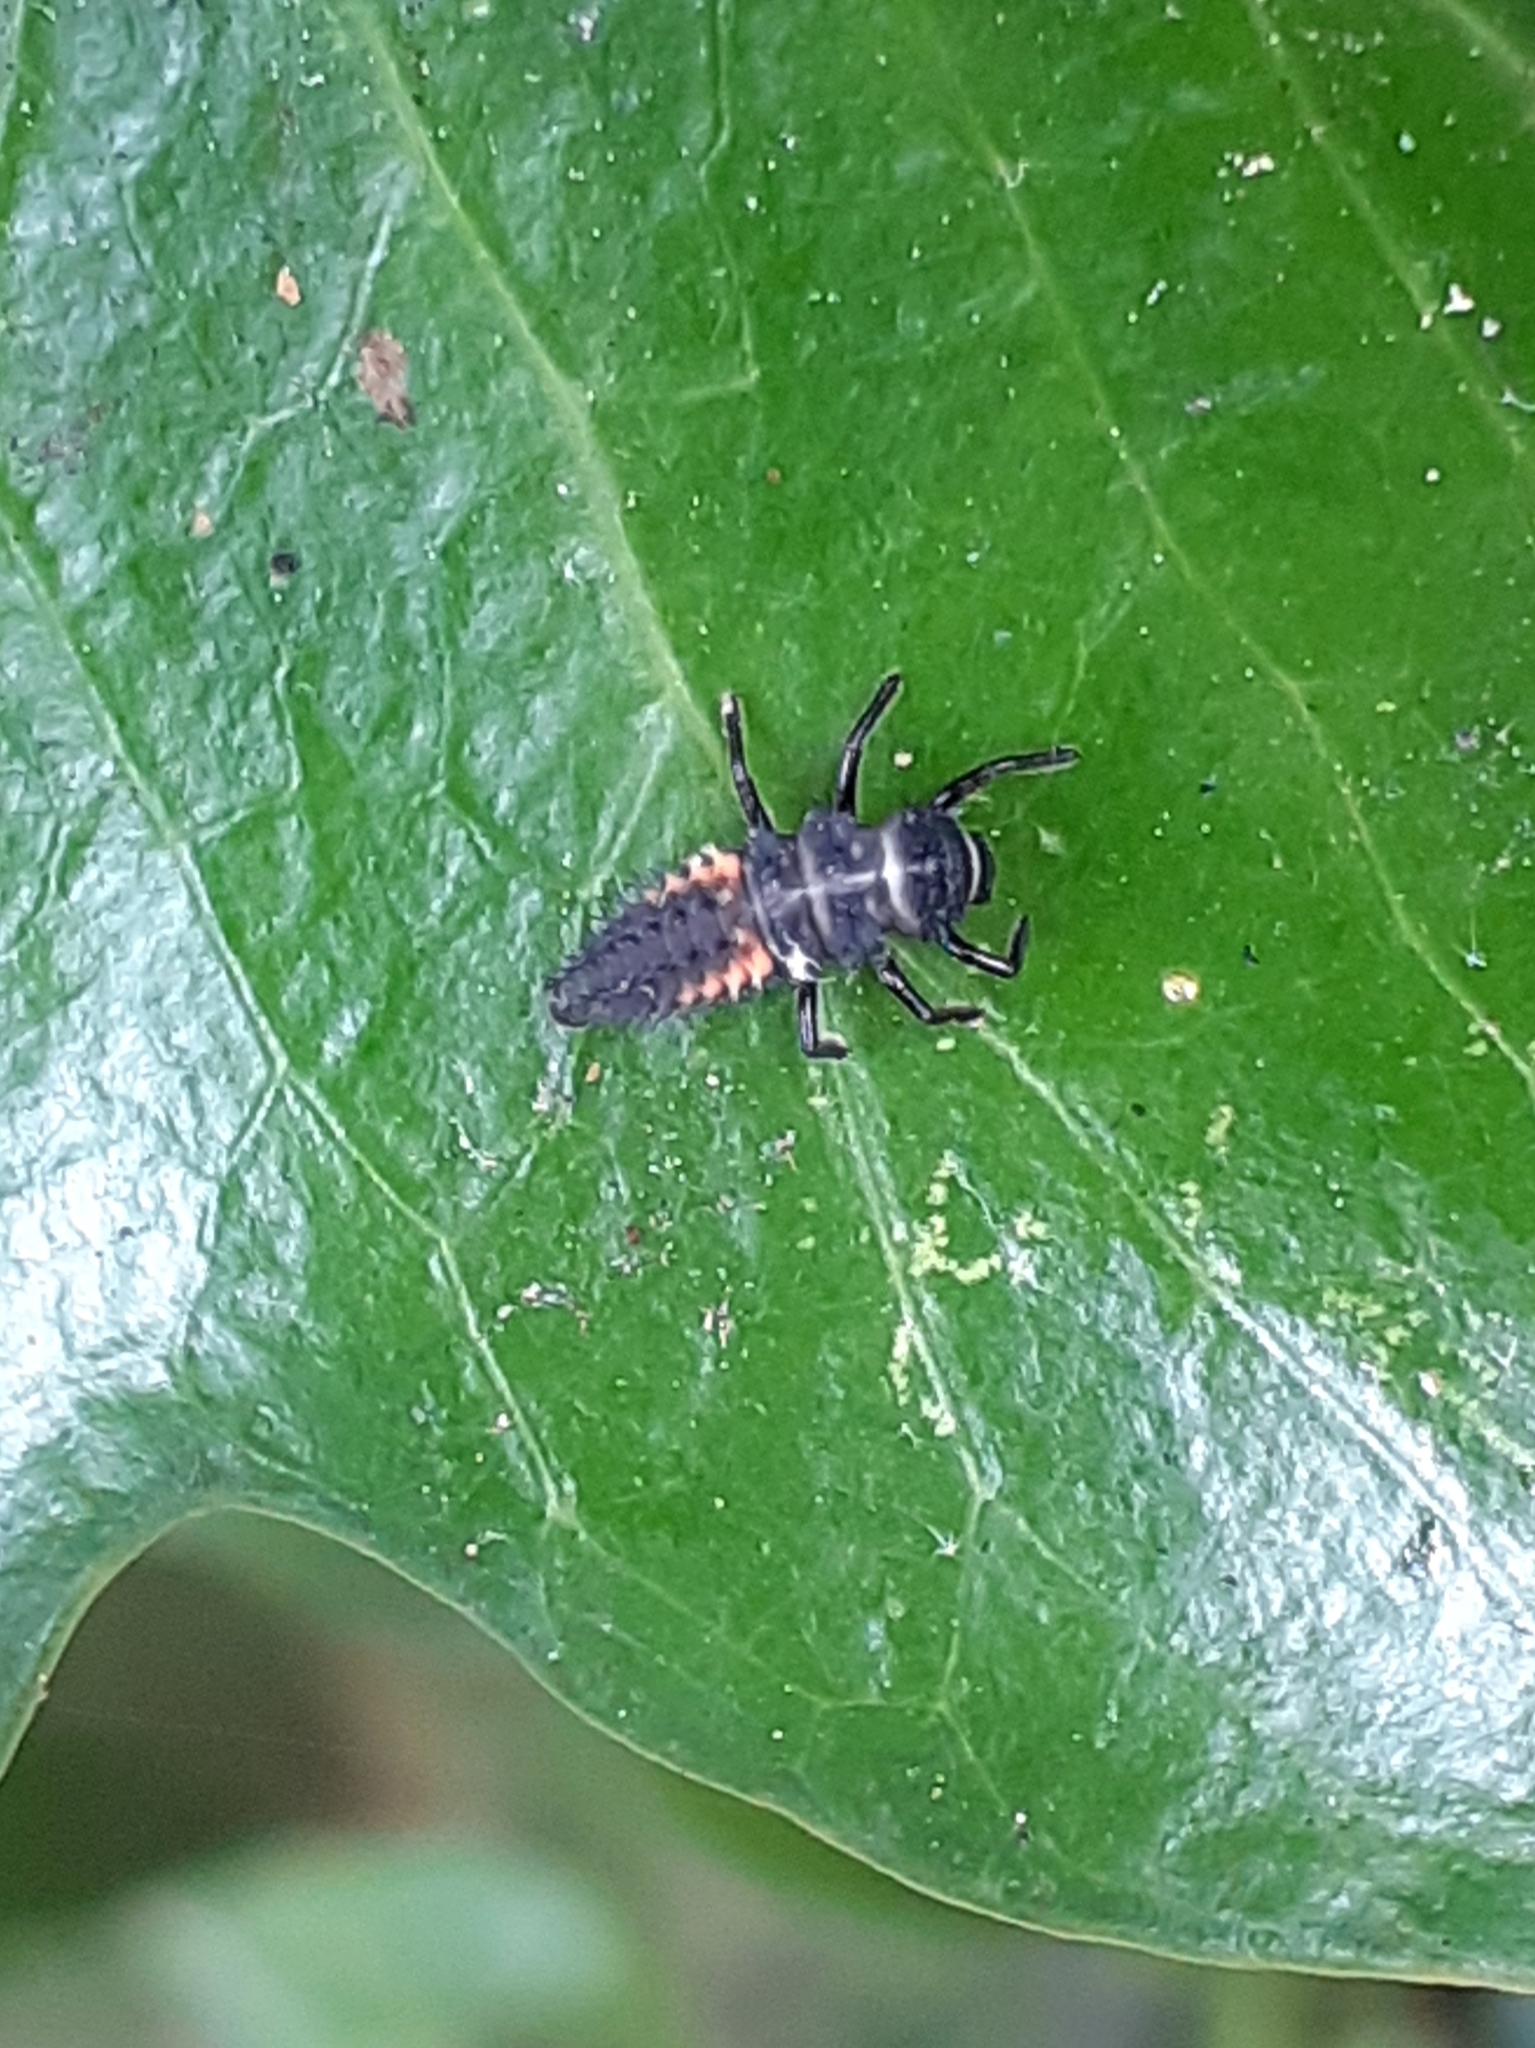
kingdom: Animalia
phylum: Arthropoda
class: Insecta
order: Coleoptera
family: Coccinellidae
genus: Harmonia
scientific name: Harmonia axyridis
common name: Harlequin ladybird
